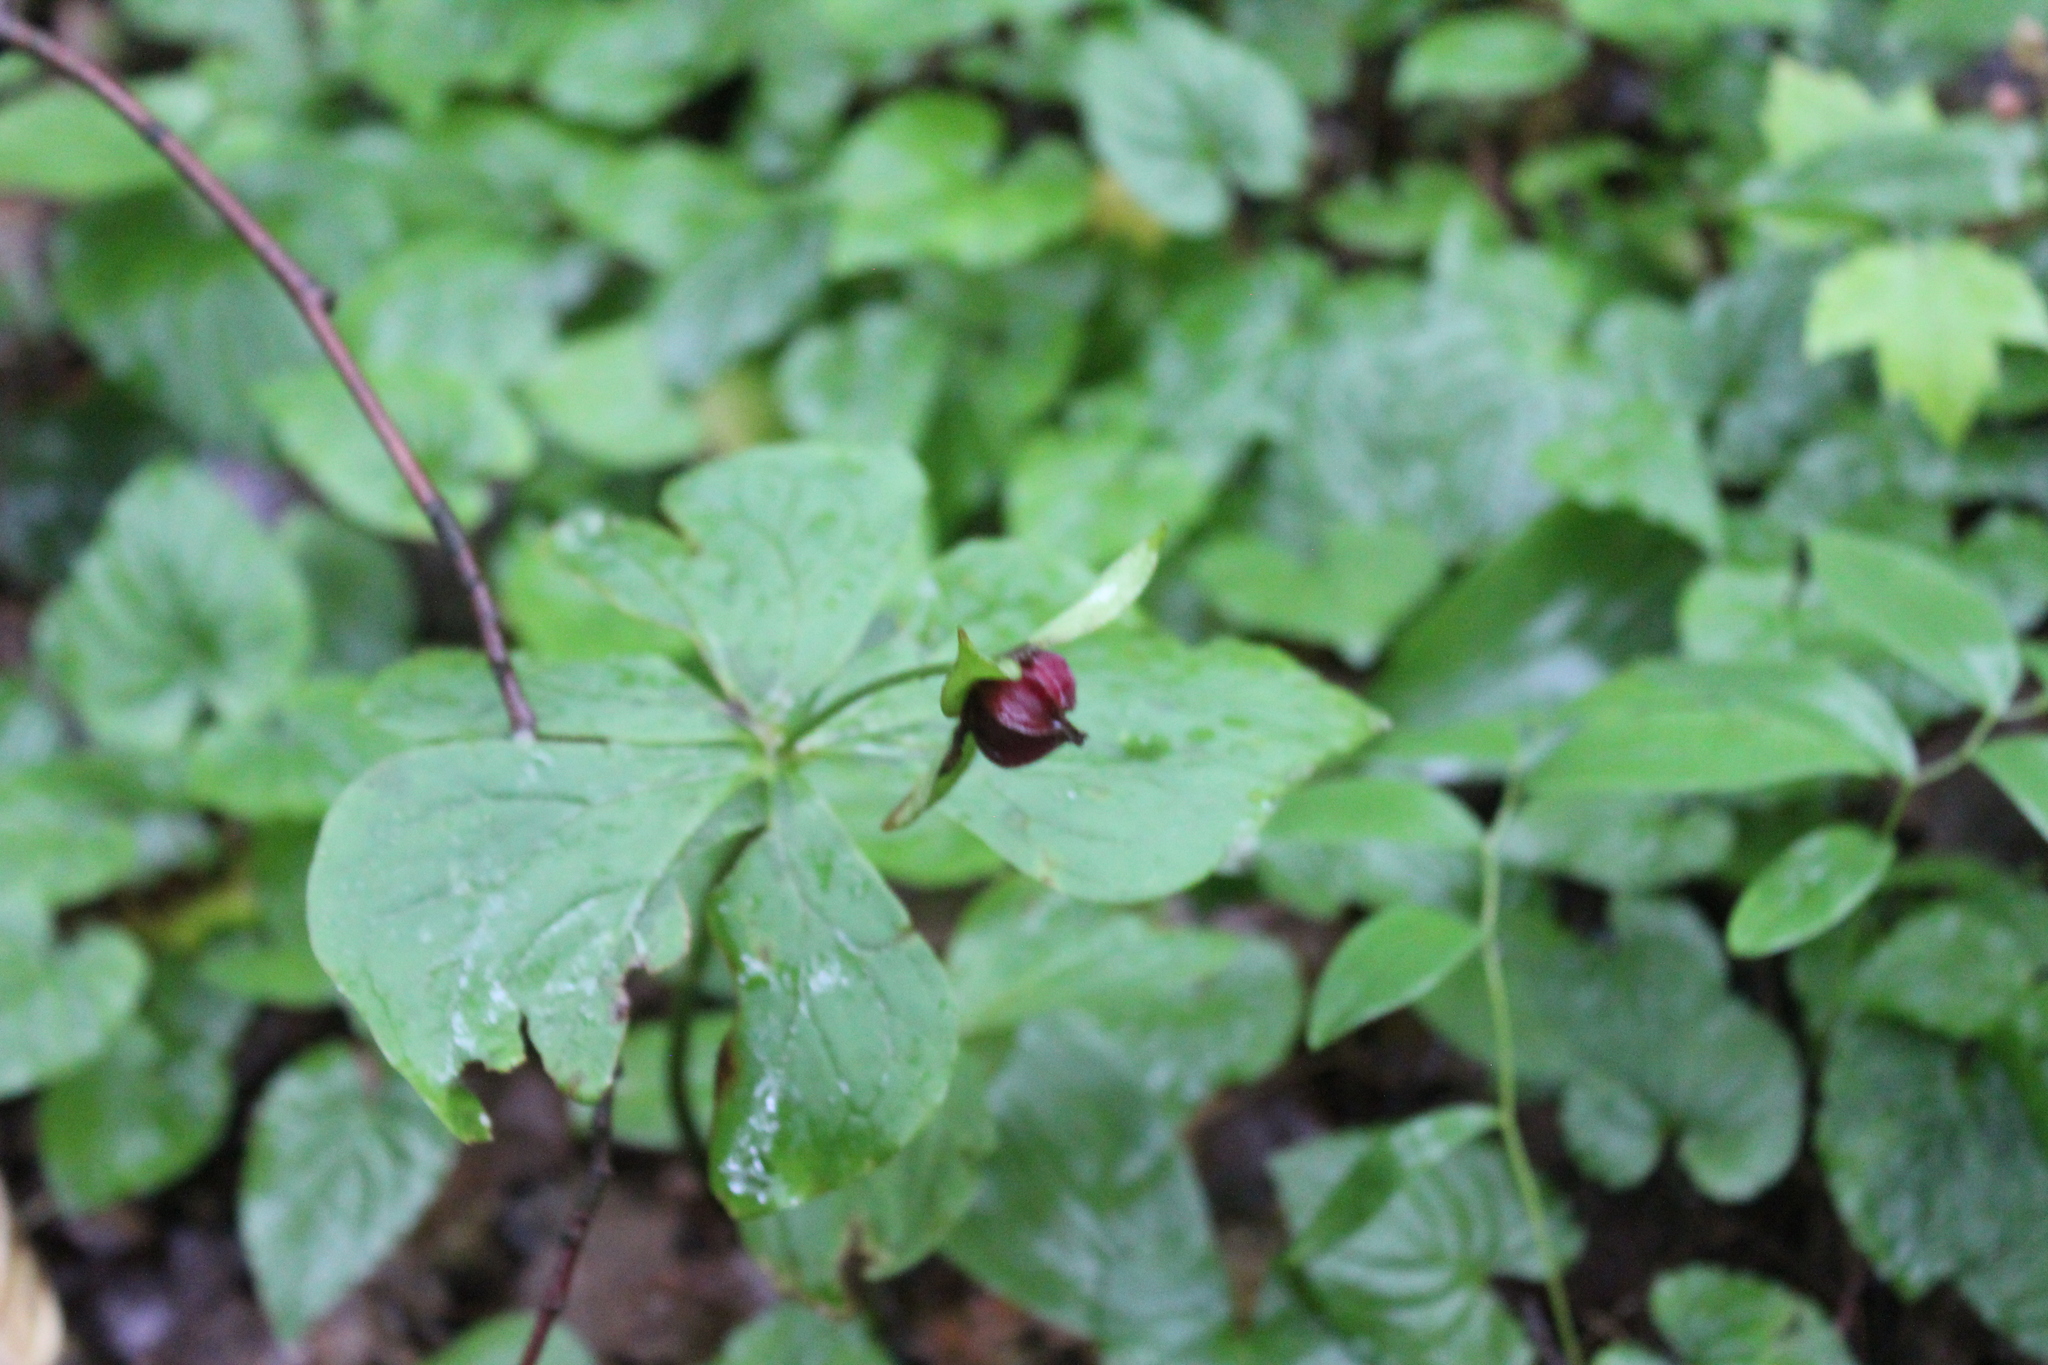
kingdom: Plantae
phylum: Tracheophyta
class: Liliopsida
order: Liliales
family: Melanthiaceae
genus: Trillium
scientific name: Trillium erectum
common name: Purple trillium
